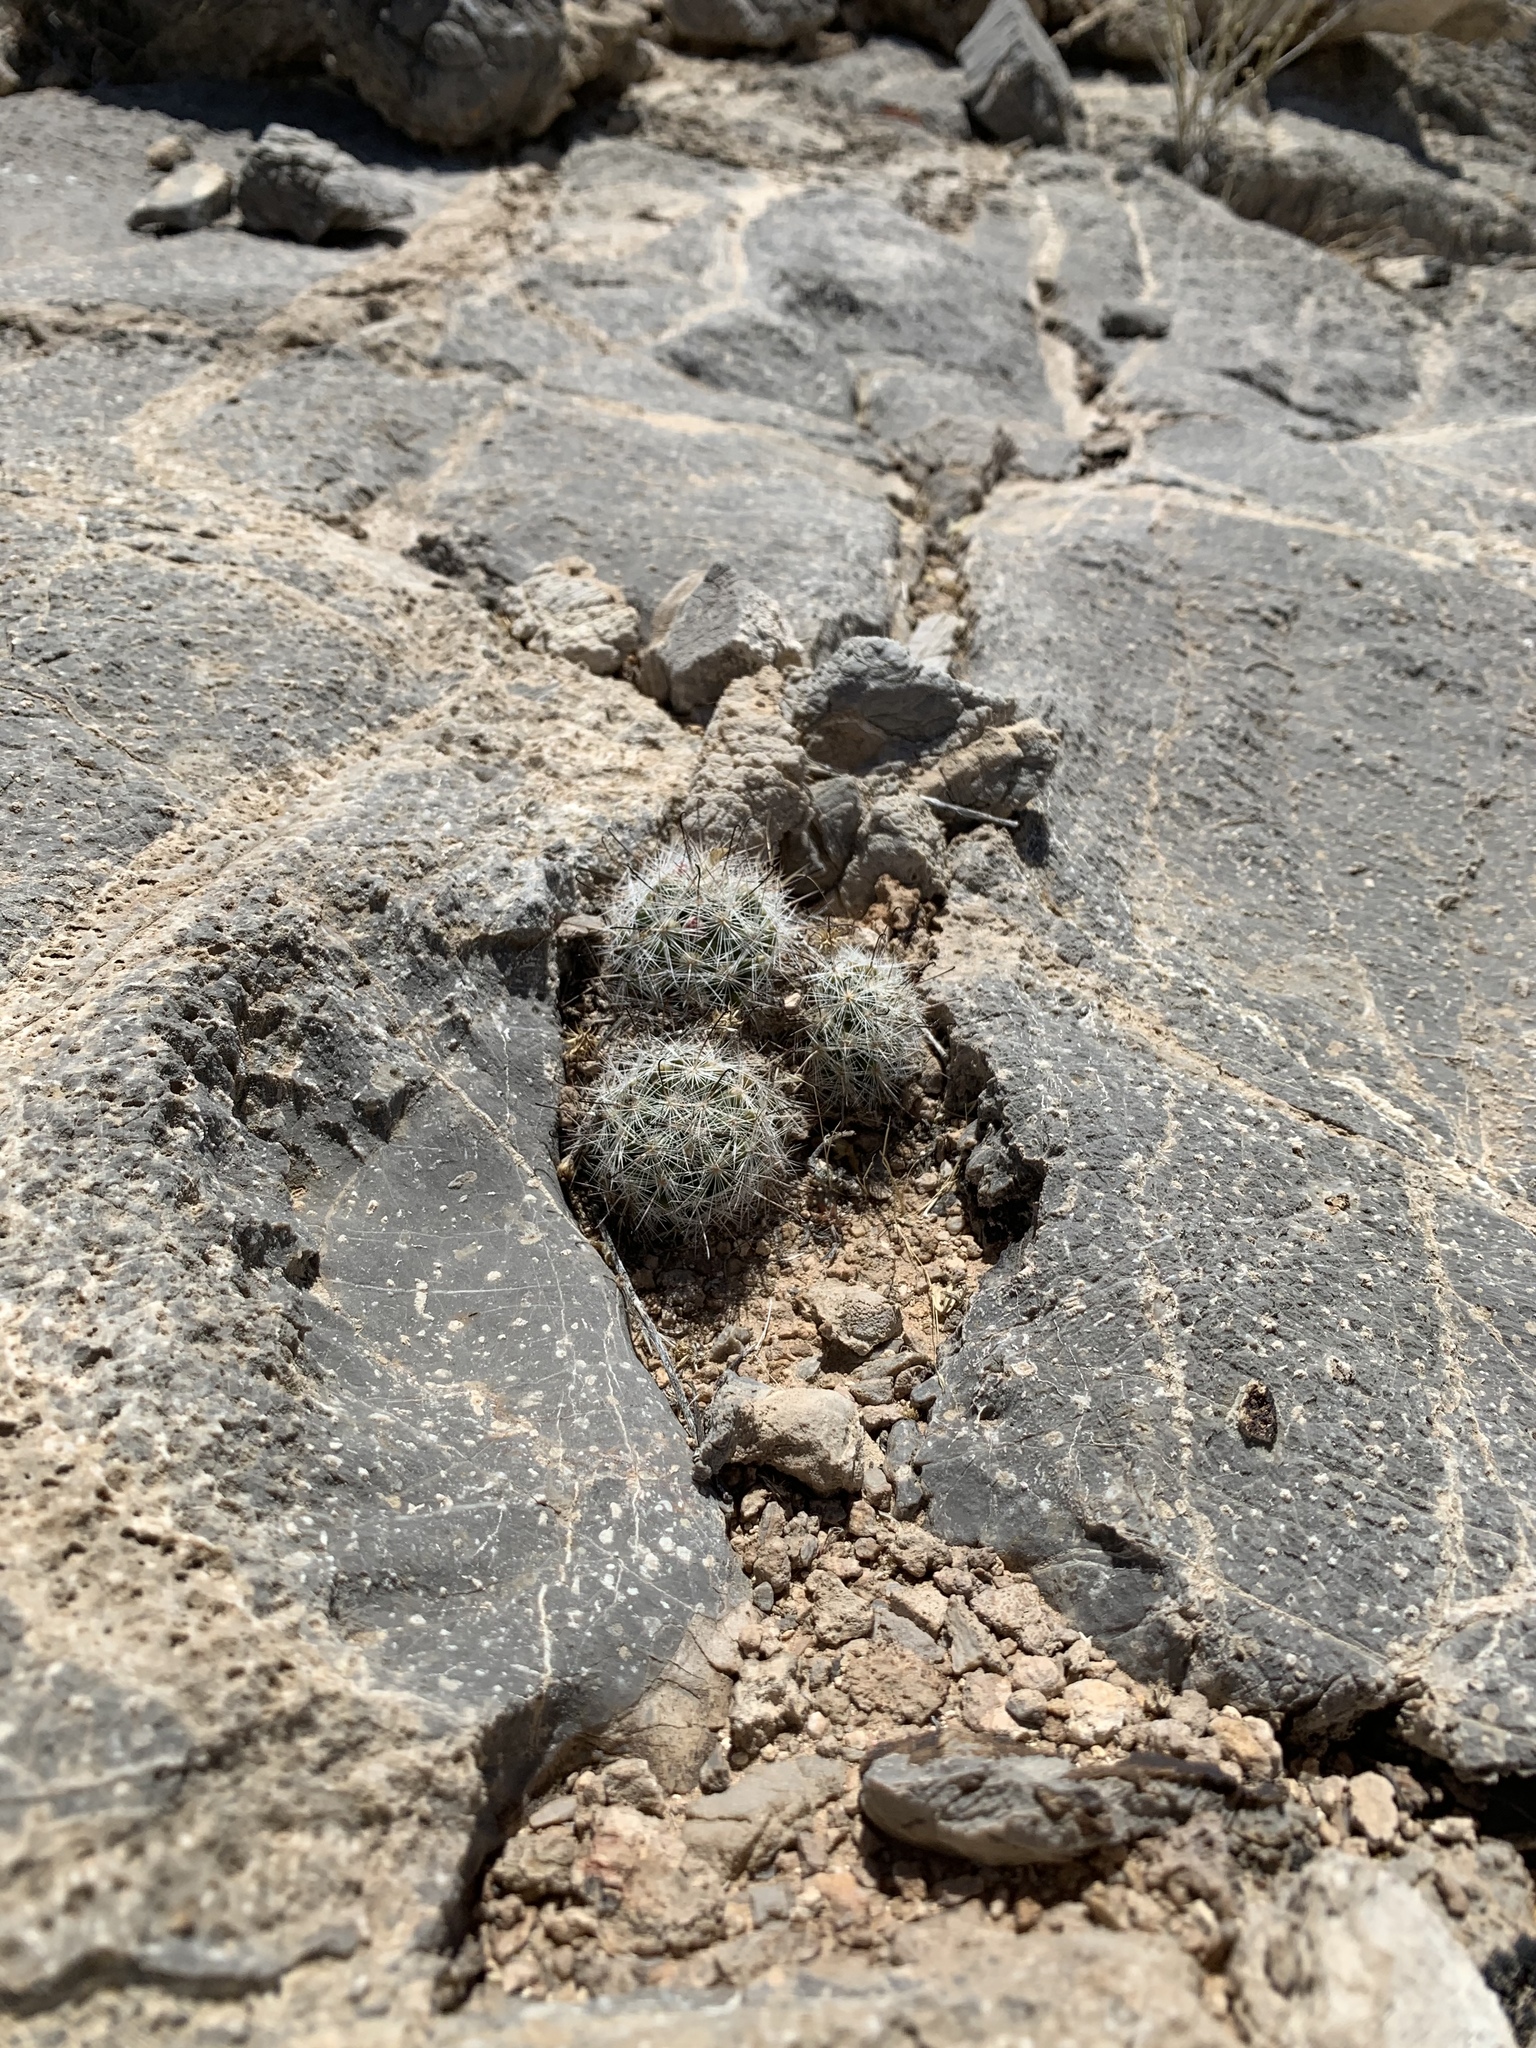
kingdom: Plantae
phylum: Tracheophyta
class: Magnoliopsida
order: Caryophyllales
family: Cactaceae
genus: Cochemiea
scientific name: Cochemiea tetrancistra
